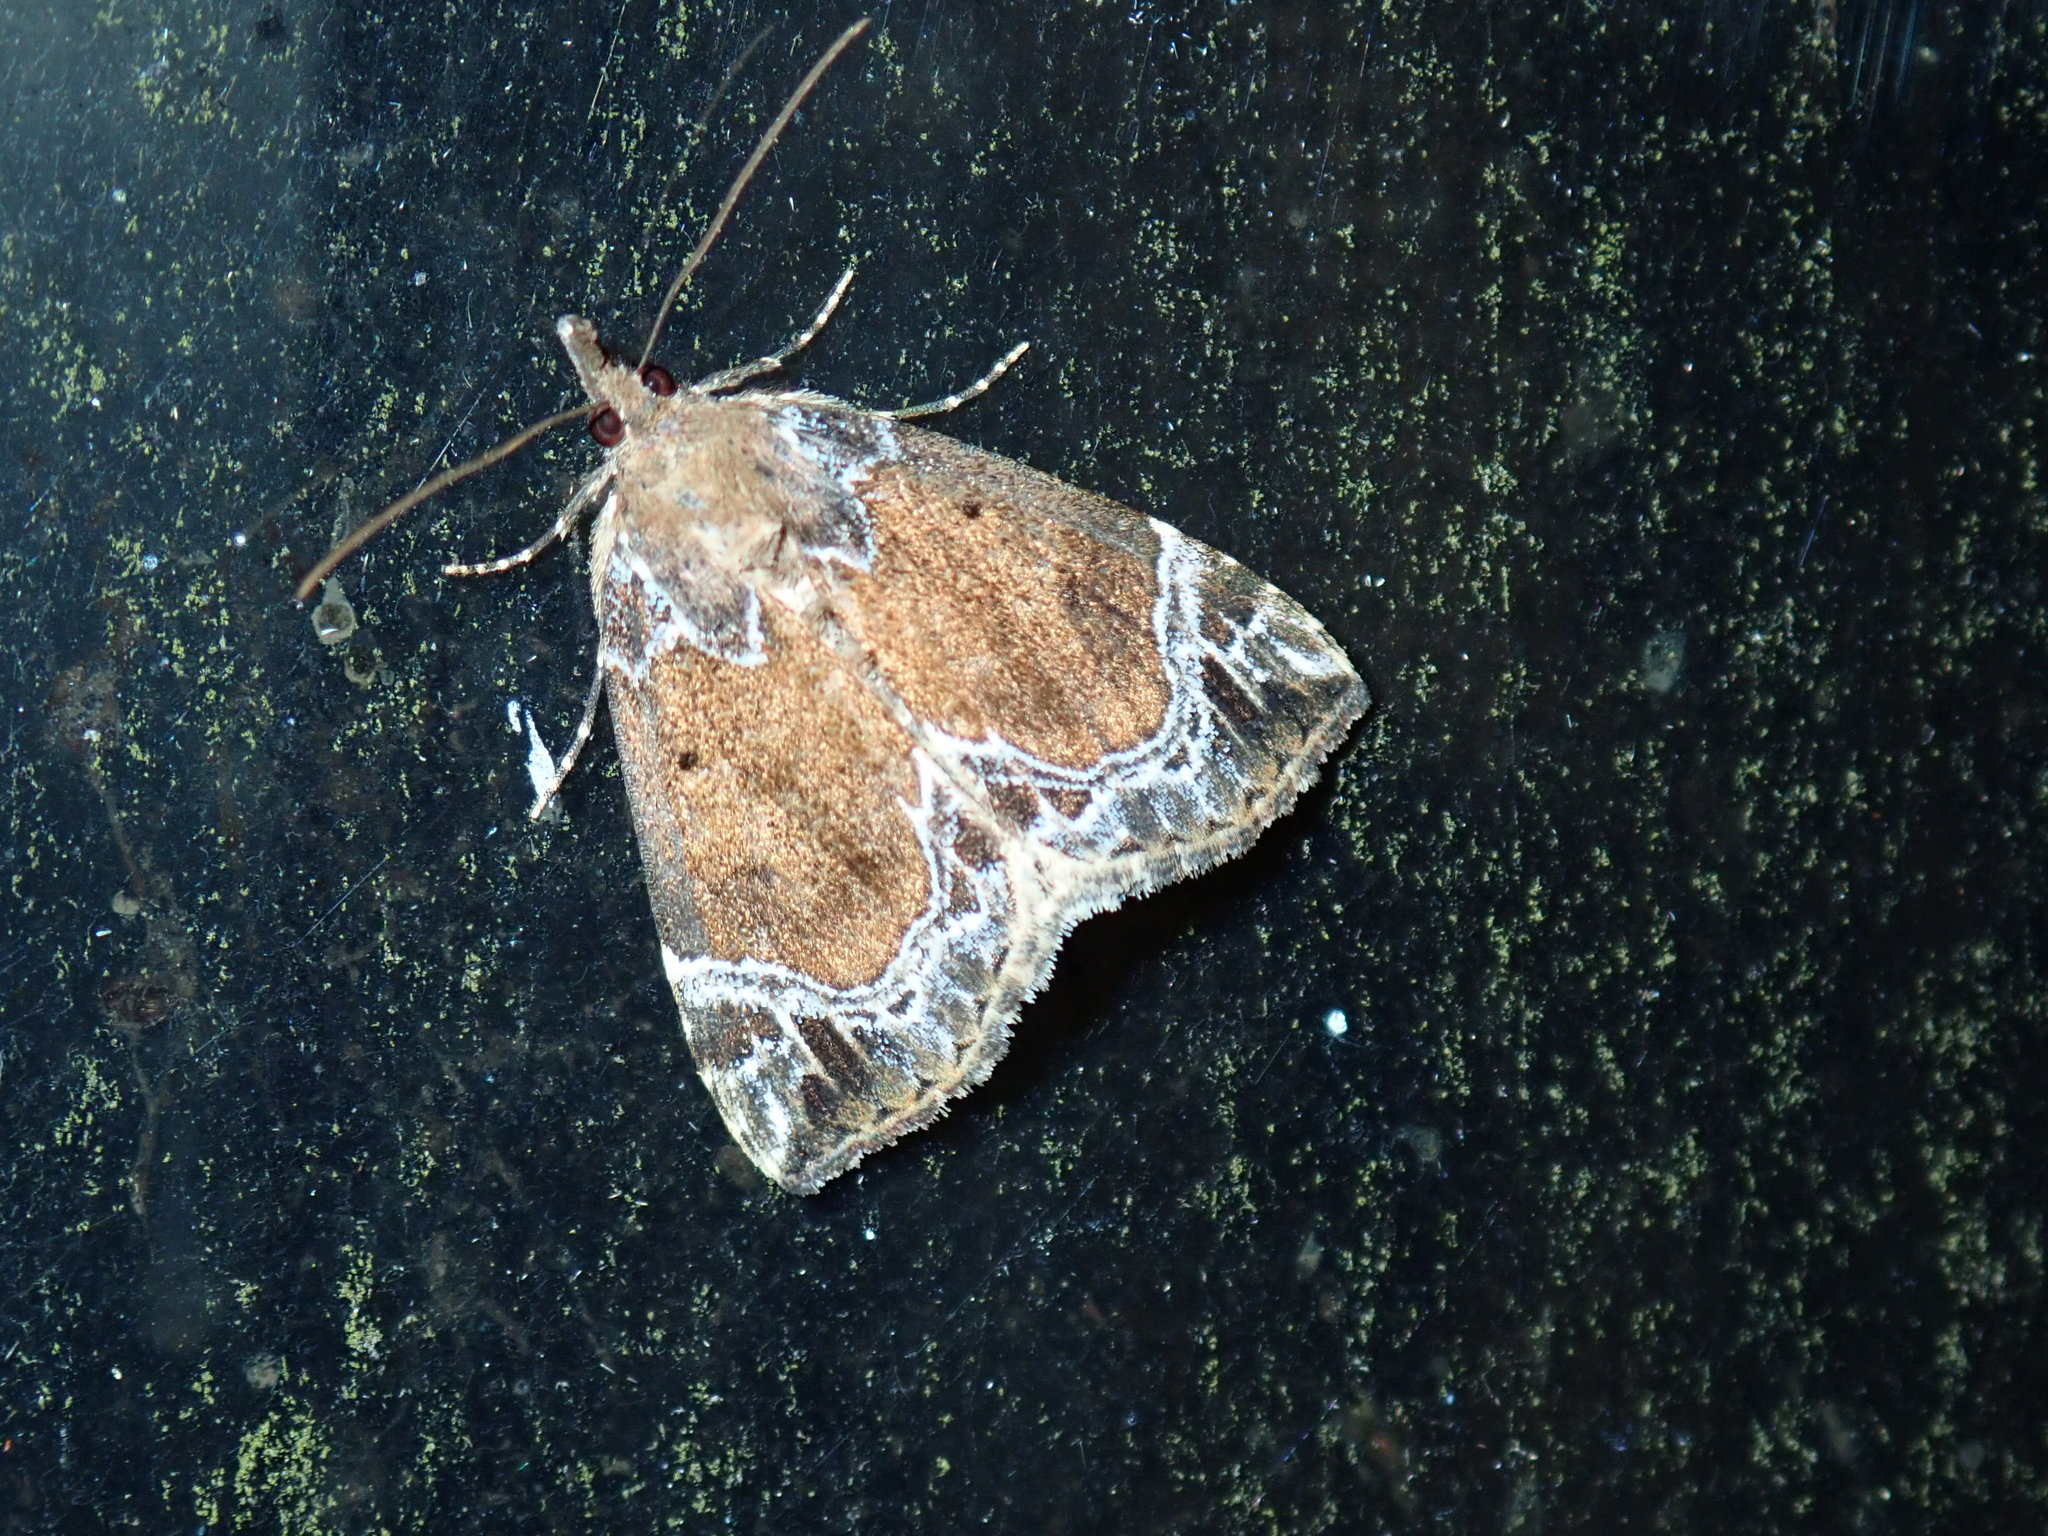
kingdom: Animalia
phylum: Arthropoda
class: Insecta
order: Lepidoptera
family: Erebidae
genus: Hypena
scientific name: Hypena abalienalis
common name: White-lined snout
